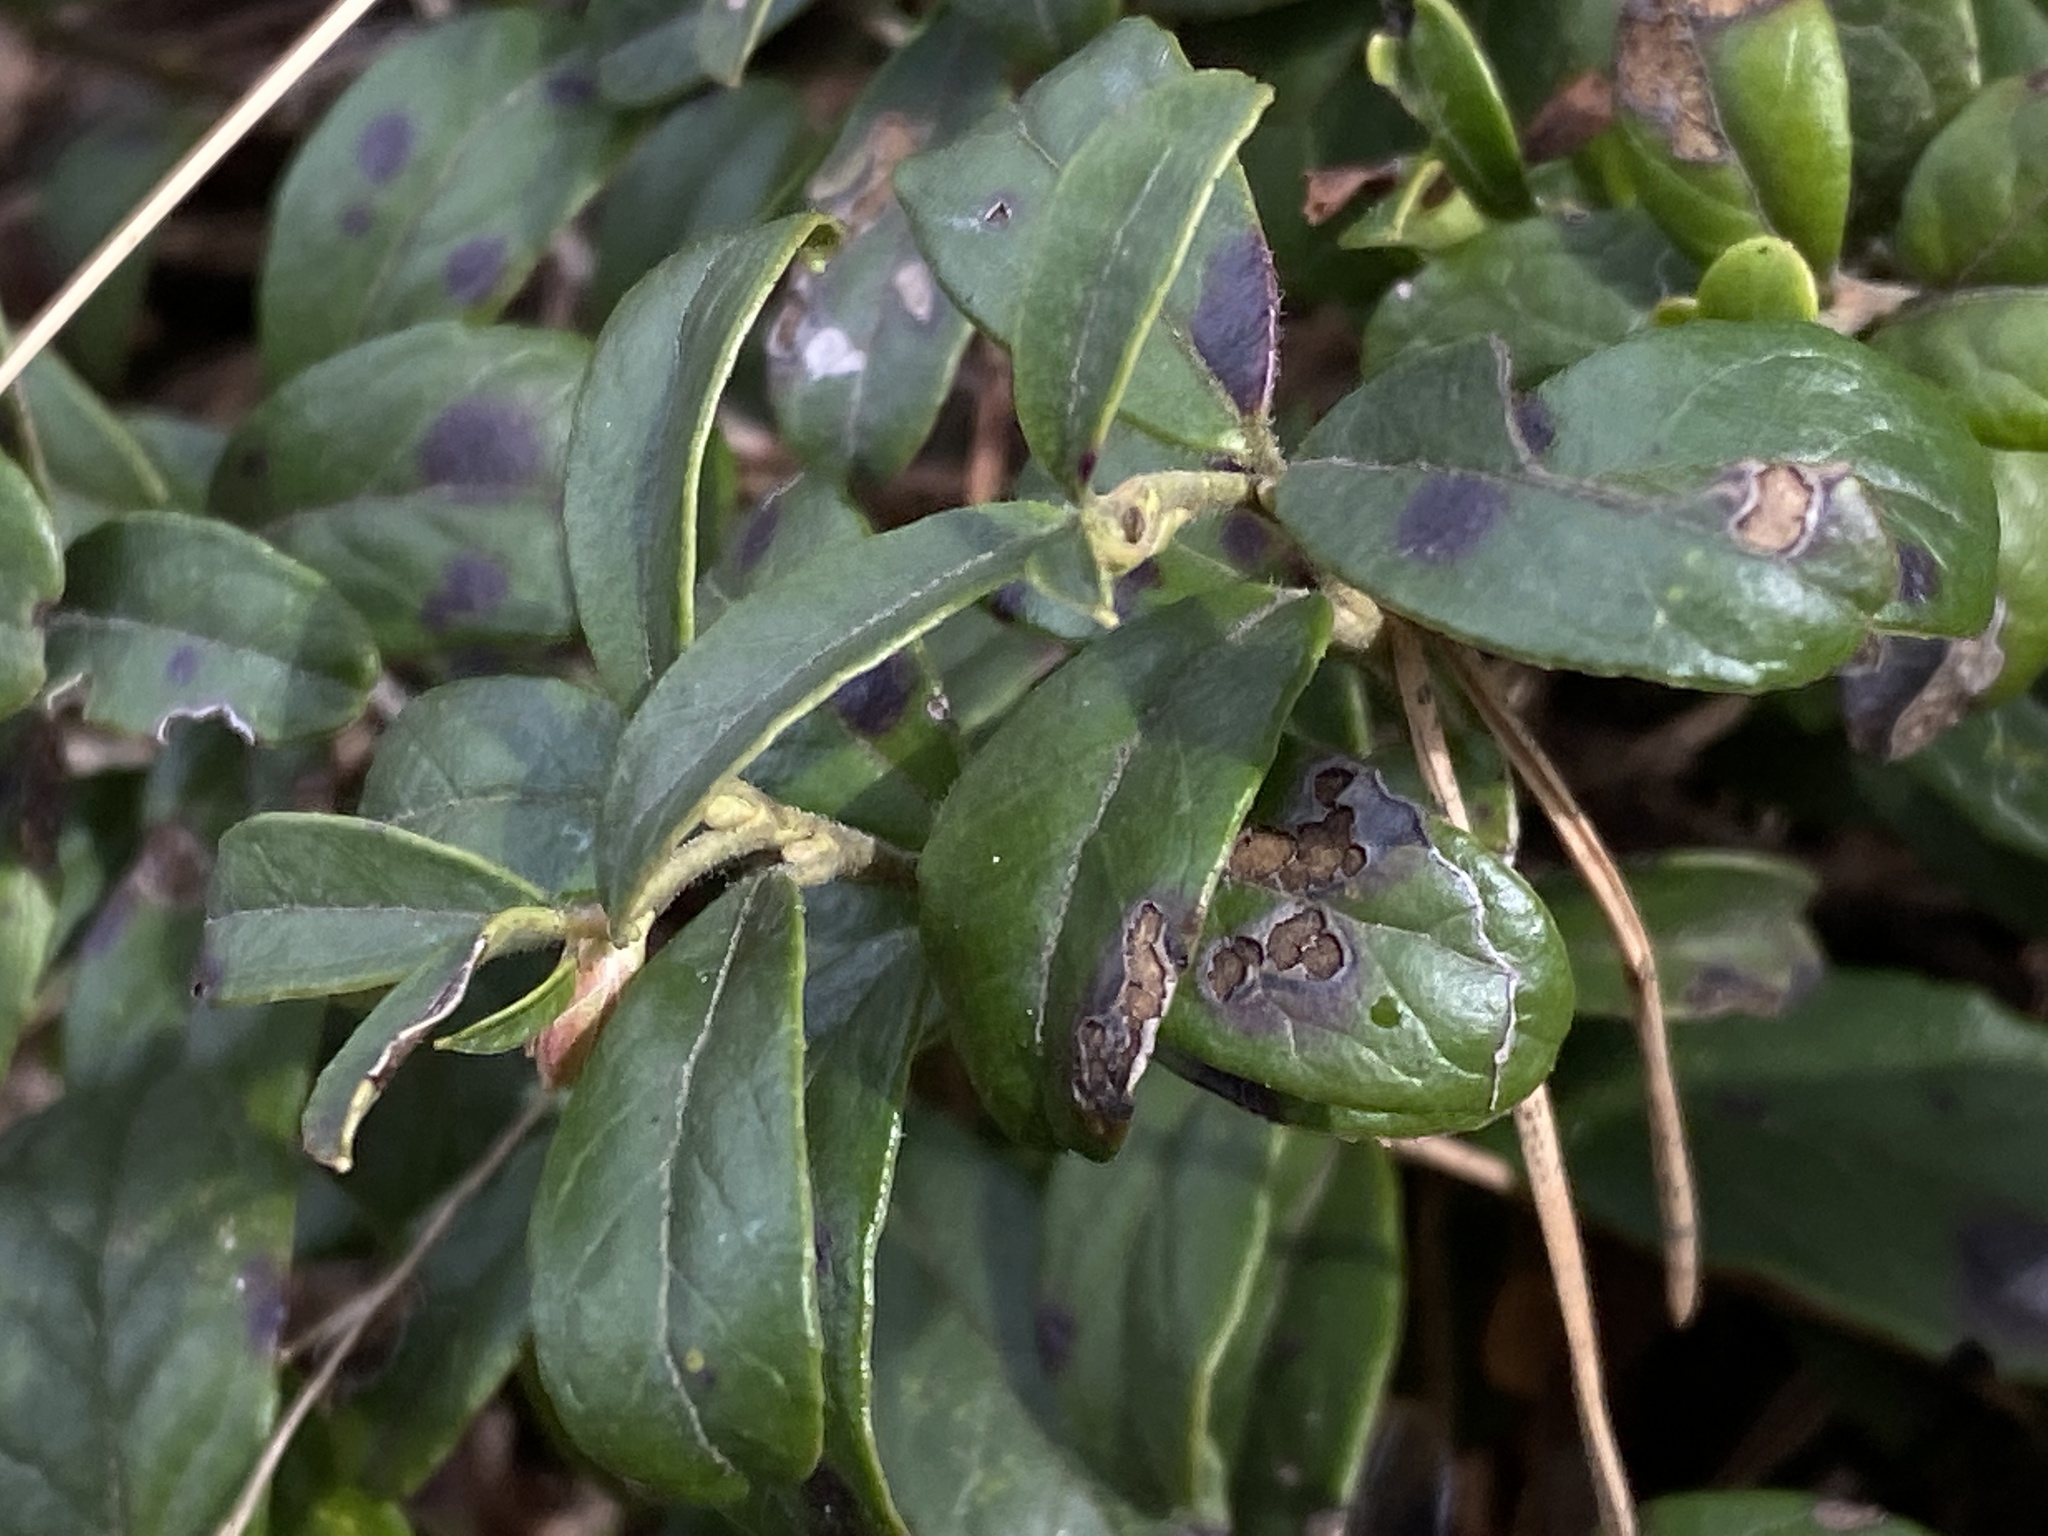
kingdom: Plantae
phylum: Tracheophyta
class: Magnoliopsida
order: Ericales
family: Ericaceae
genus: Vaccinium
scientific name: Vaccinium vitis-idaea
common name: Cowberry
